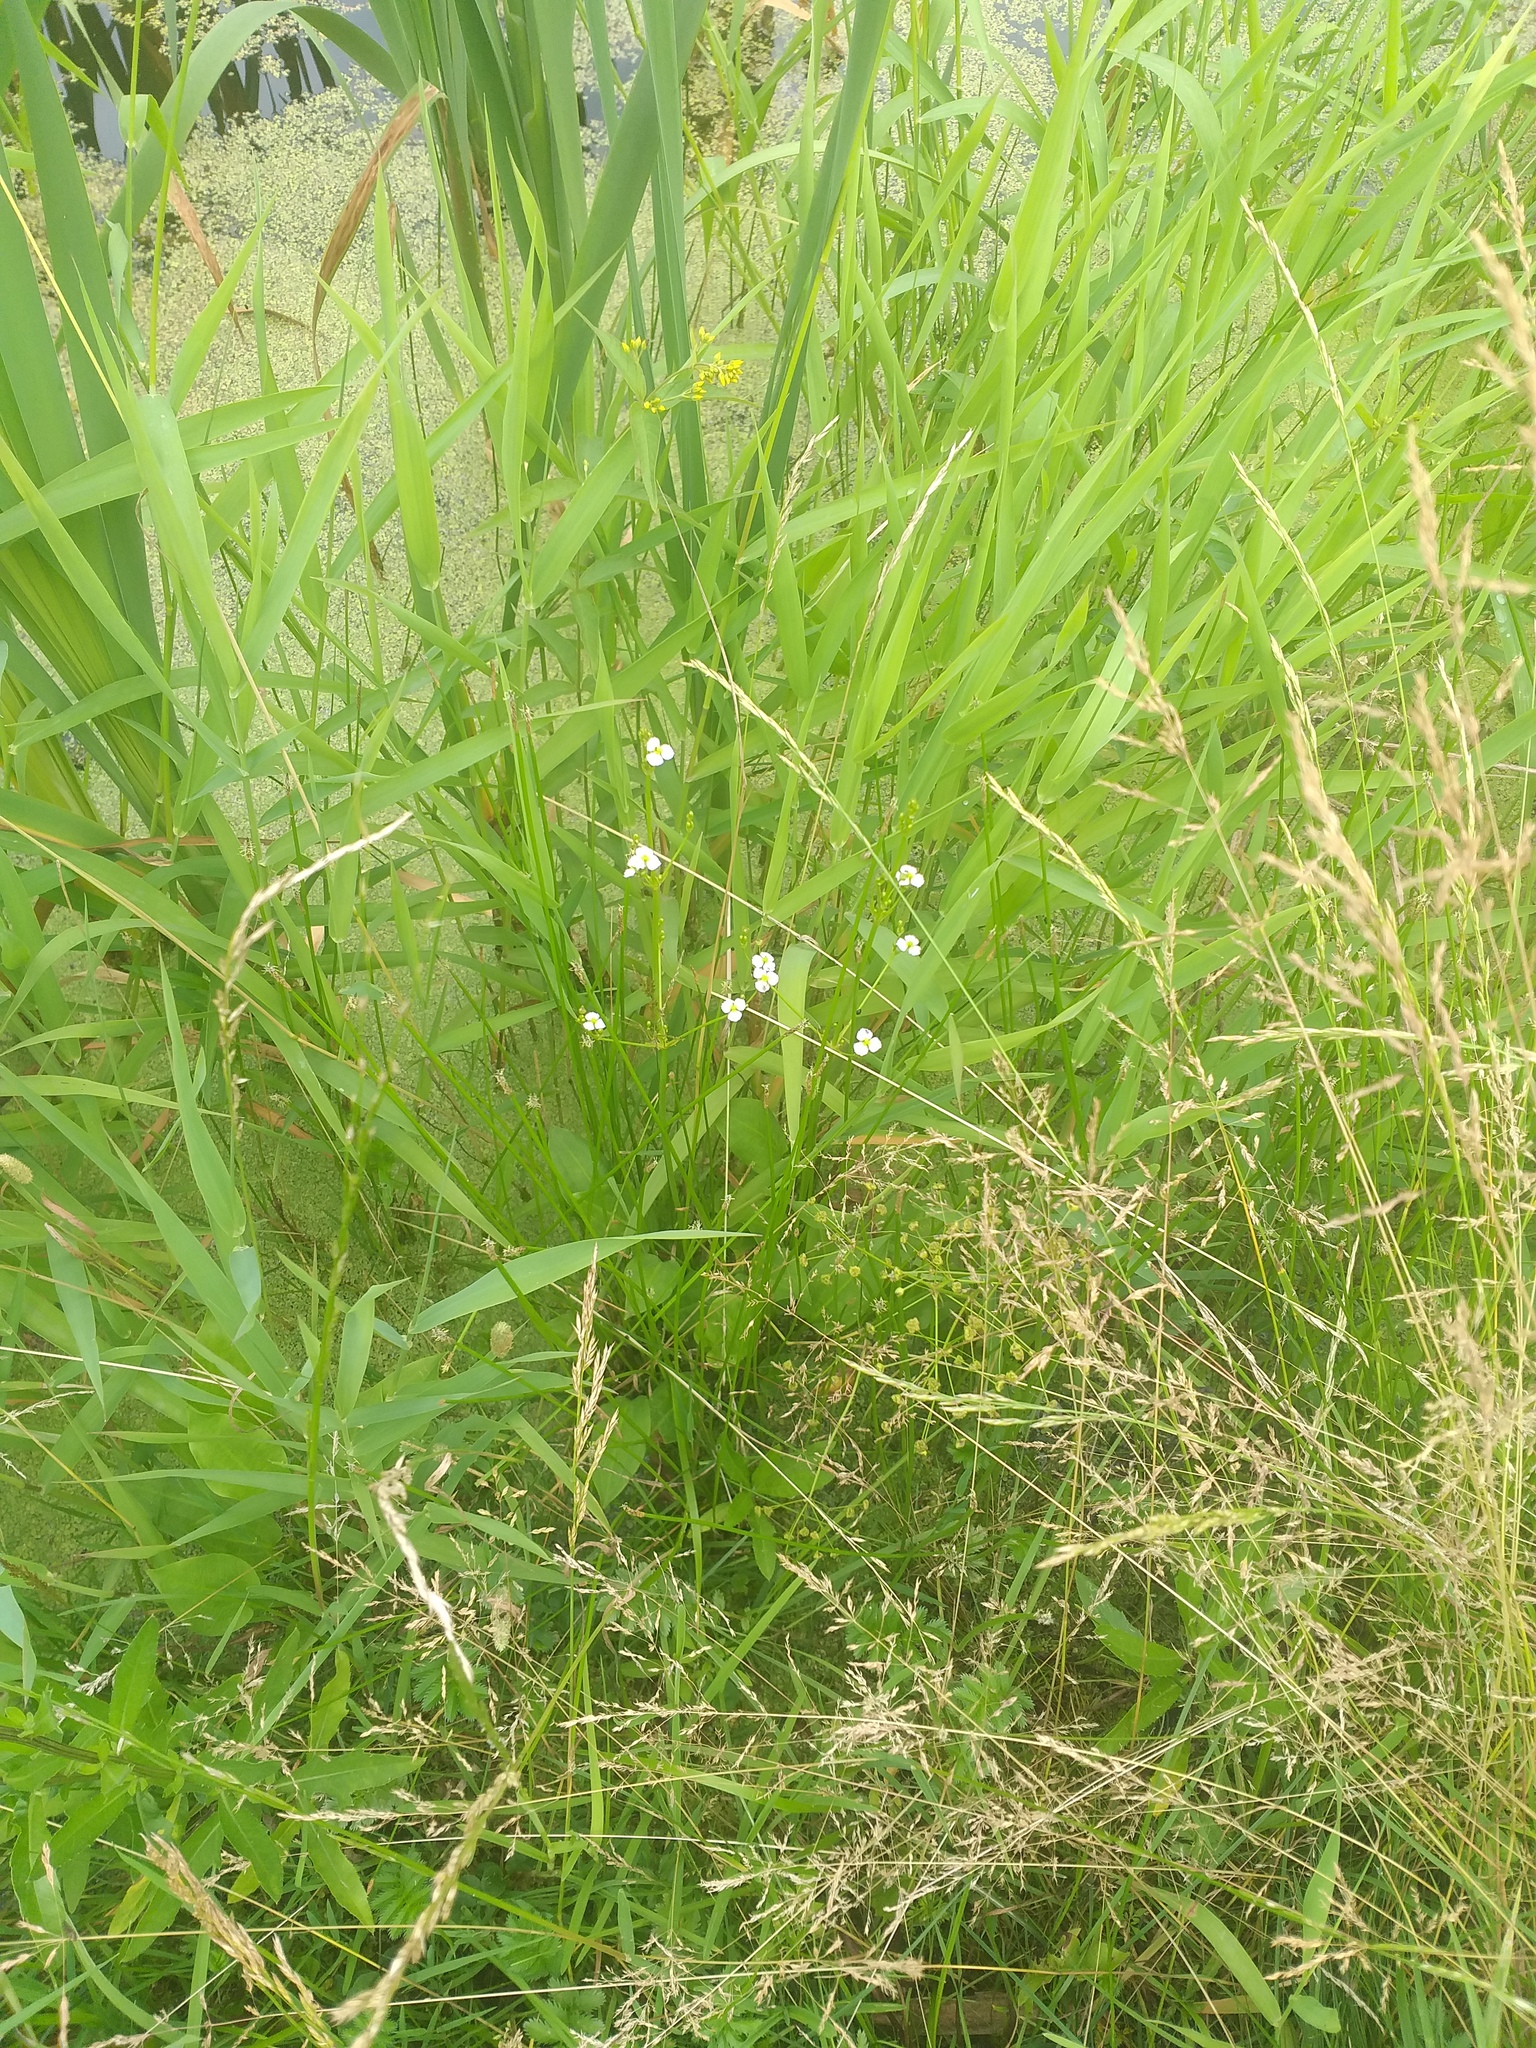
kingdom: Plantae
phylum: Tracheophyta
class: Liliopsida
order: Alismatales
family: Alismataceae
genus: Alisma
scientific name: Alisma plantago-aquatica
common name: Water-plantain
